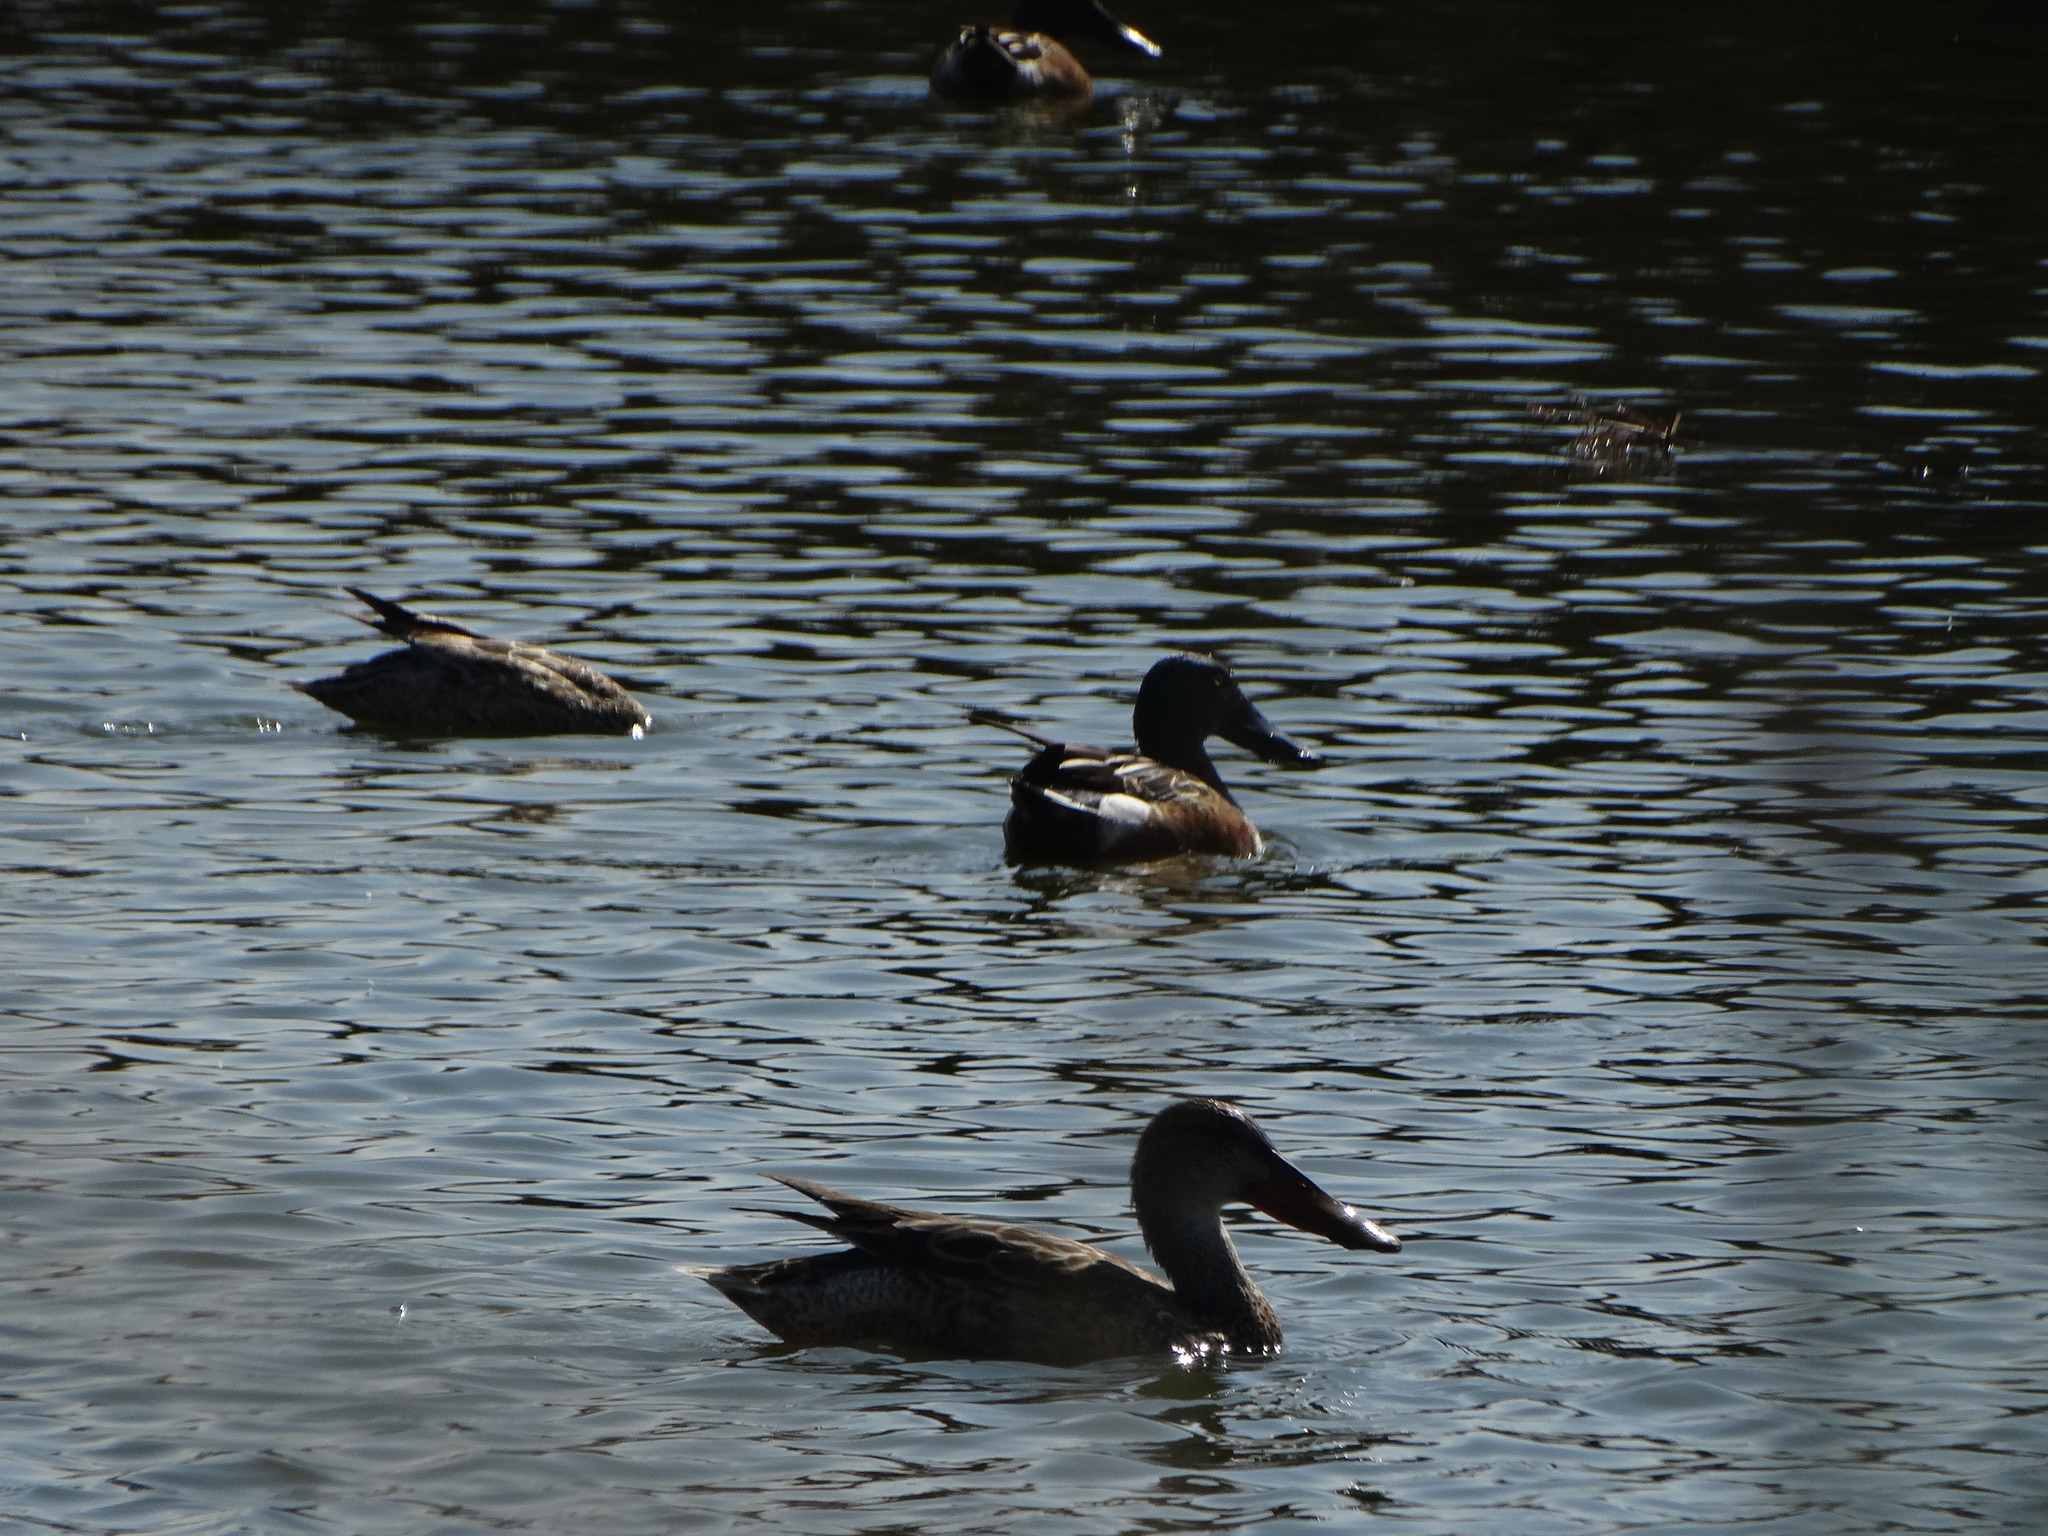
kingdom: Animalia
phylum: Chordata
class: Aves
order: Anseriformes
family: Anatidae
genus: Spatula
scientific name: Spatula clypeata
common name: Northern shoveler
